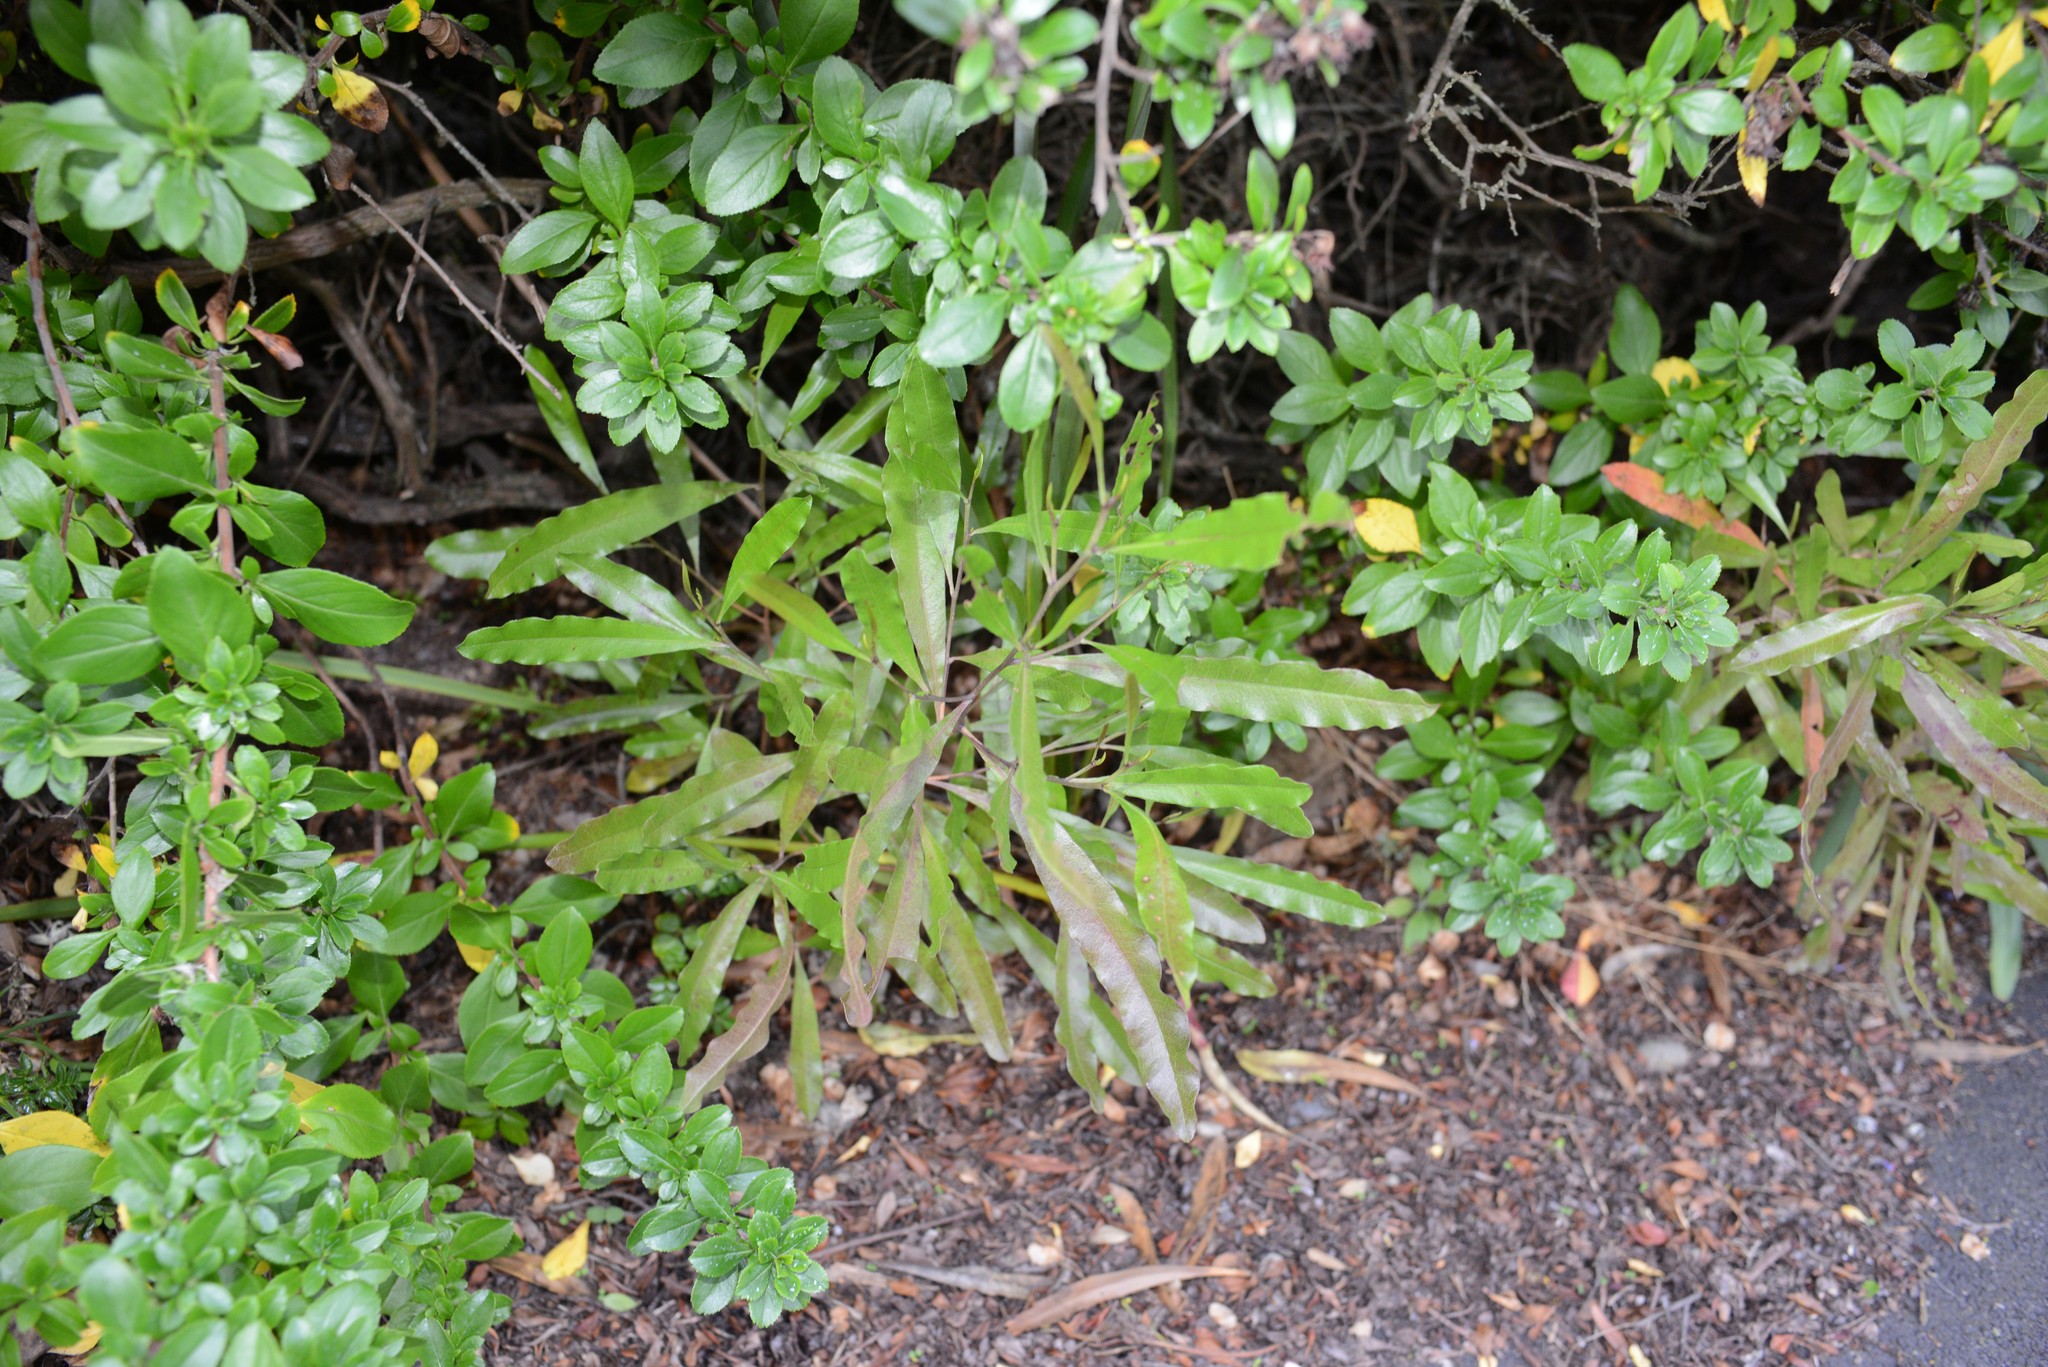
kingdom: Plantae
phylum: Tracheophyta
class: Magnoliopsida
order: Sapindales
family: Sapindaceae
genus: Dodonaea
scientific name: Dodonaea viscosa
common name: Hopbush
